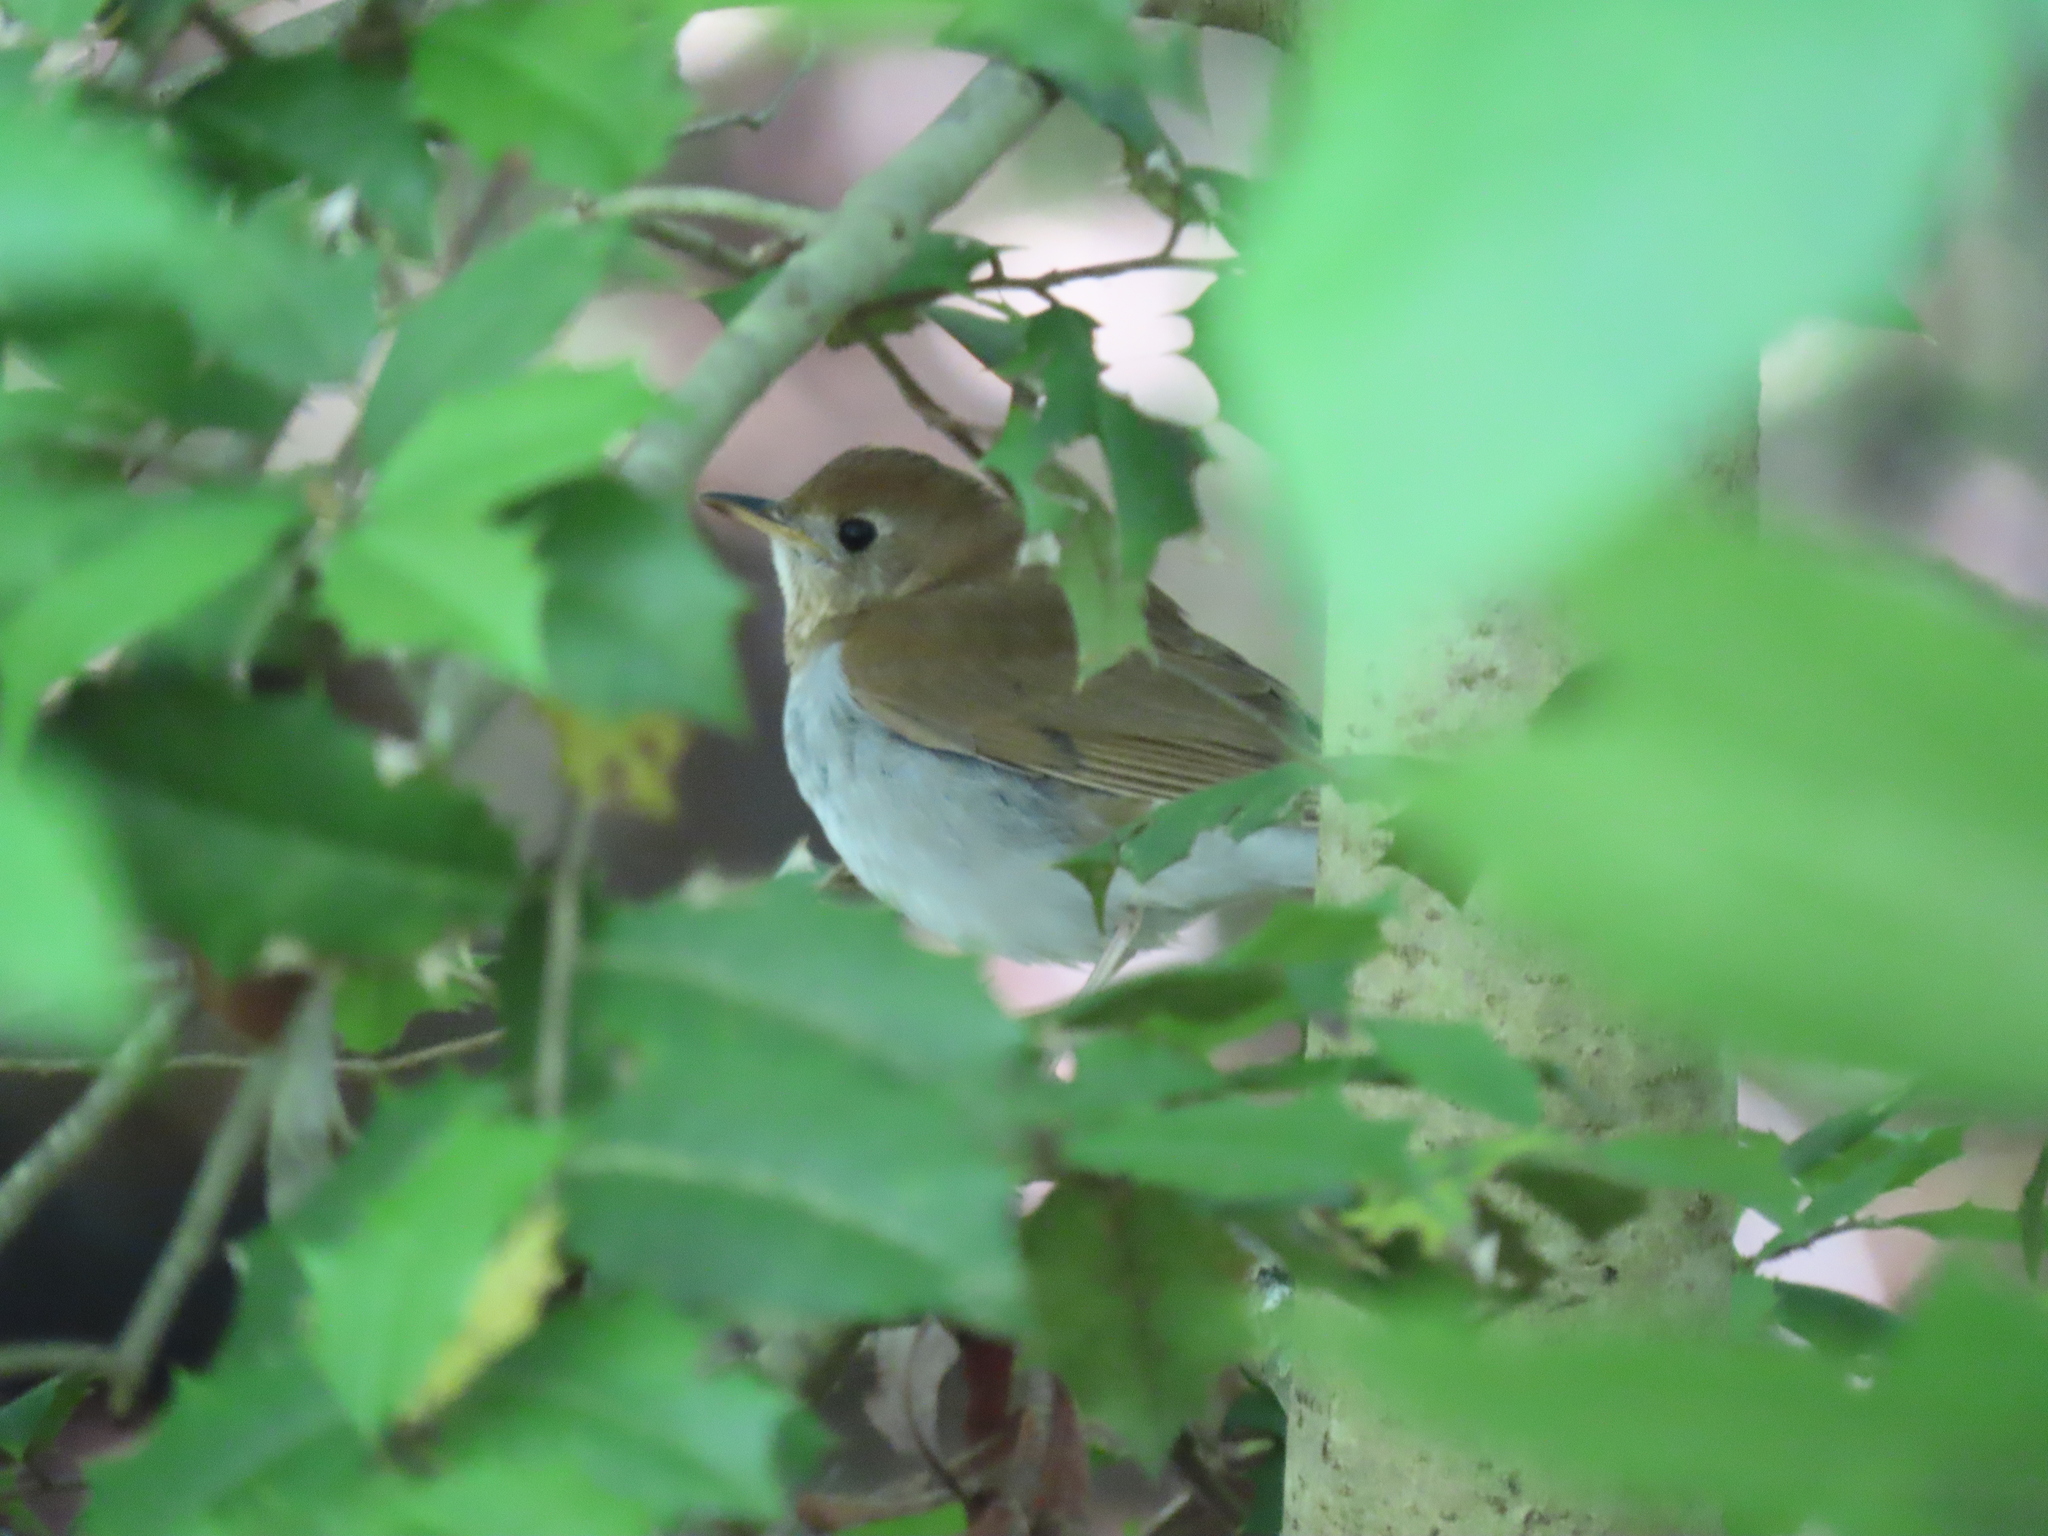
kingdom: Animalia
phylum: Chordata
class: Aves
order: Passeriformes
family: Turdidae
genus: Catharus
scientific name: Catharus fuscescens
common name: Veery
